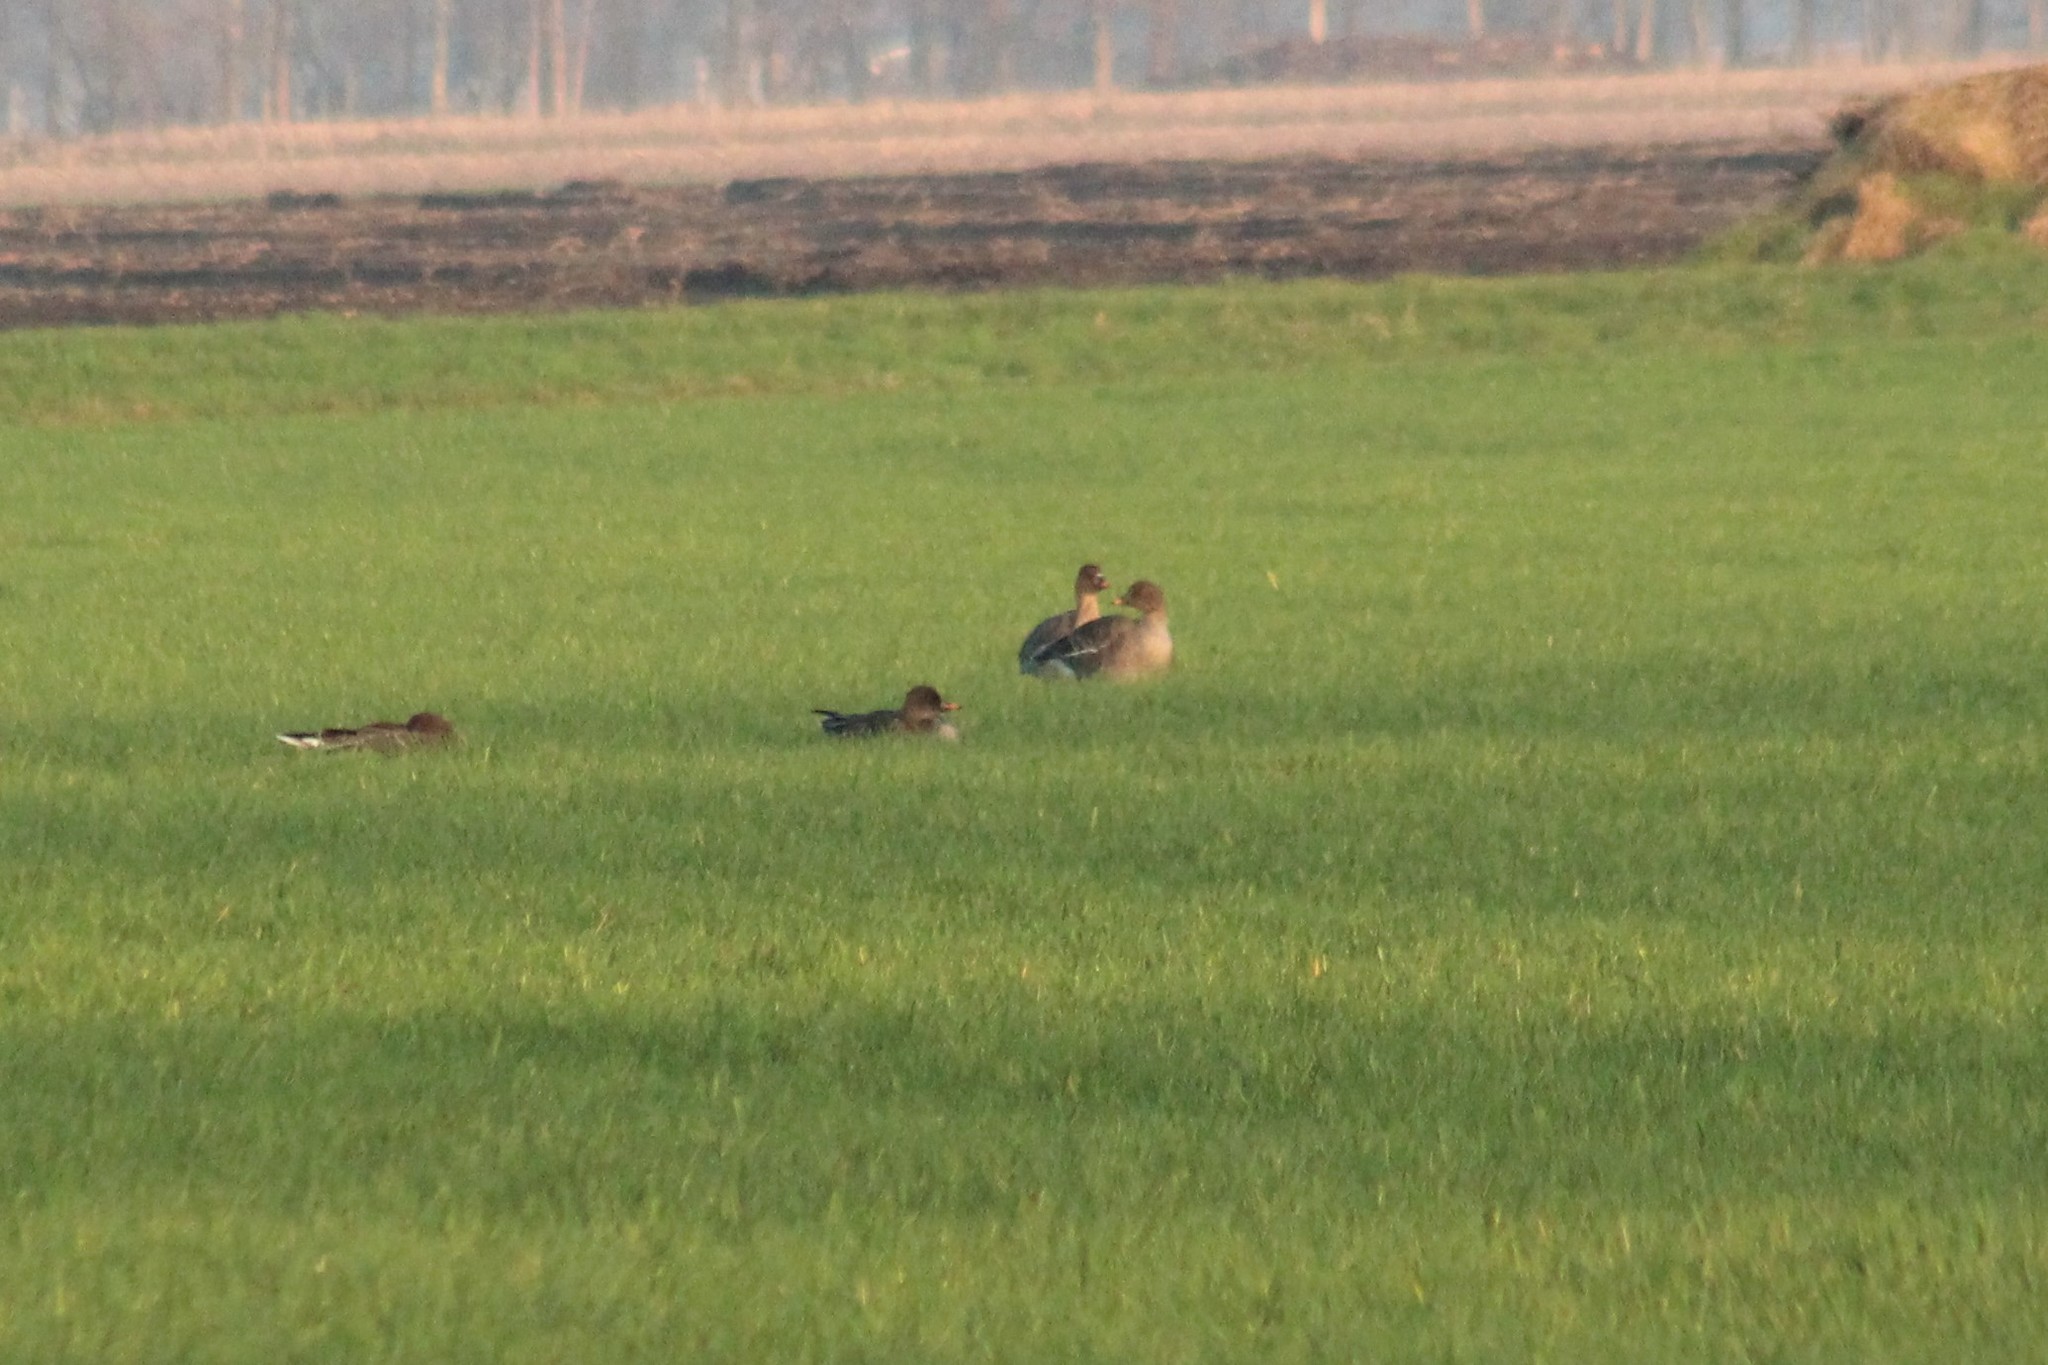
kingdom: Animalia
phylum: Chordata
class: Aves
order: Anseriformes
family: Anatidae
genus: Anser
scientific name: Anser brachyrhynchus
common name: Pink-footed goose
